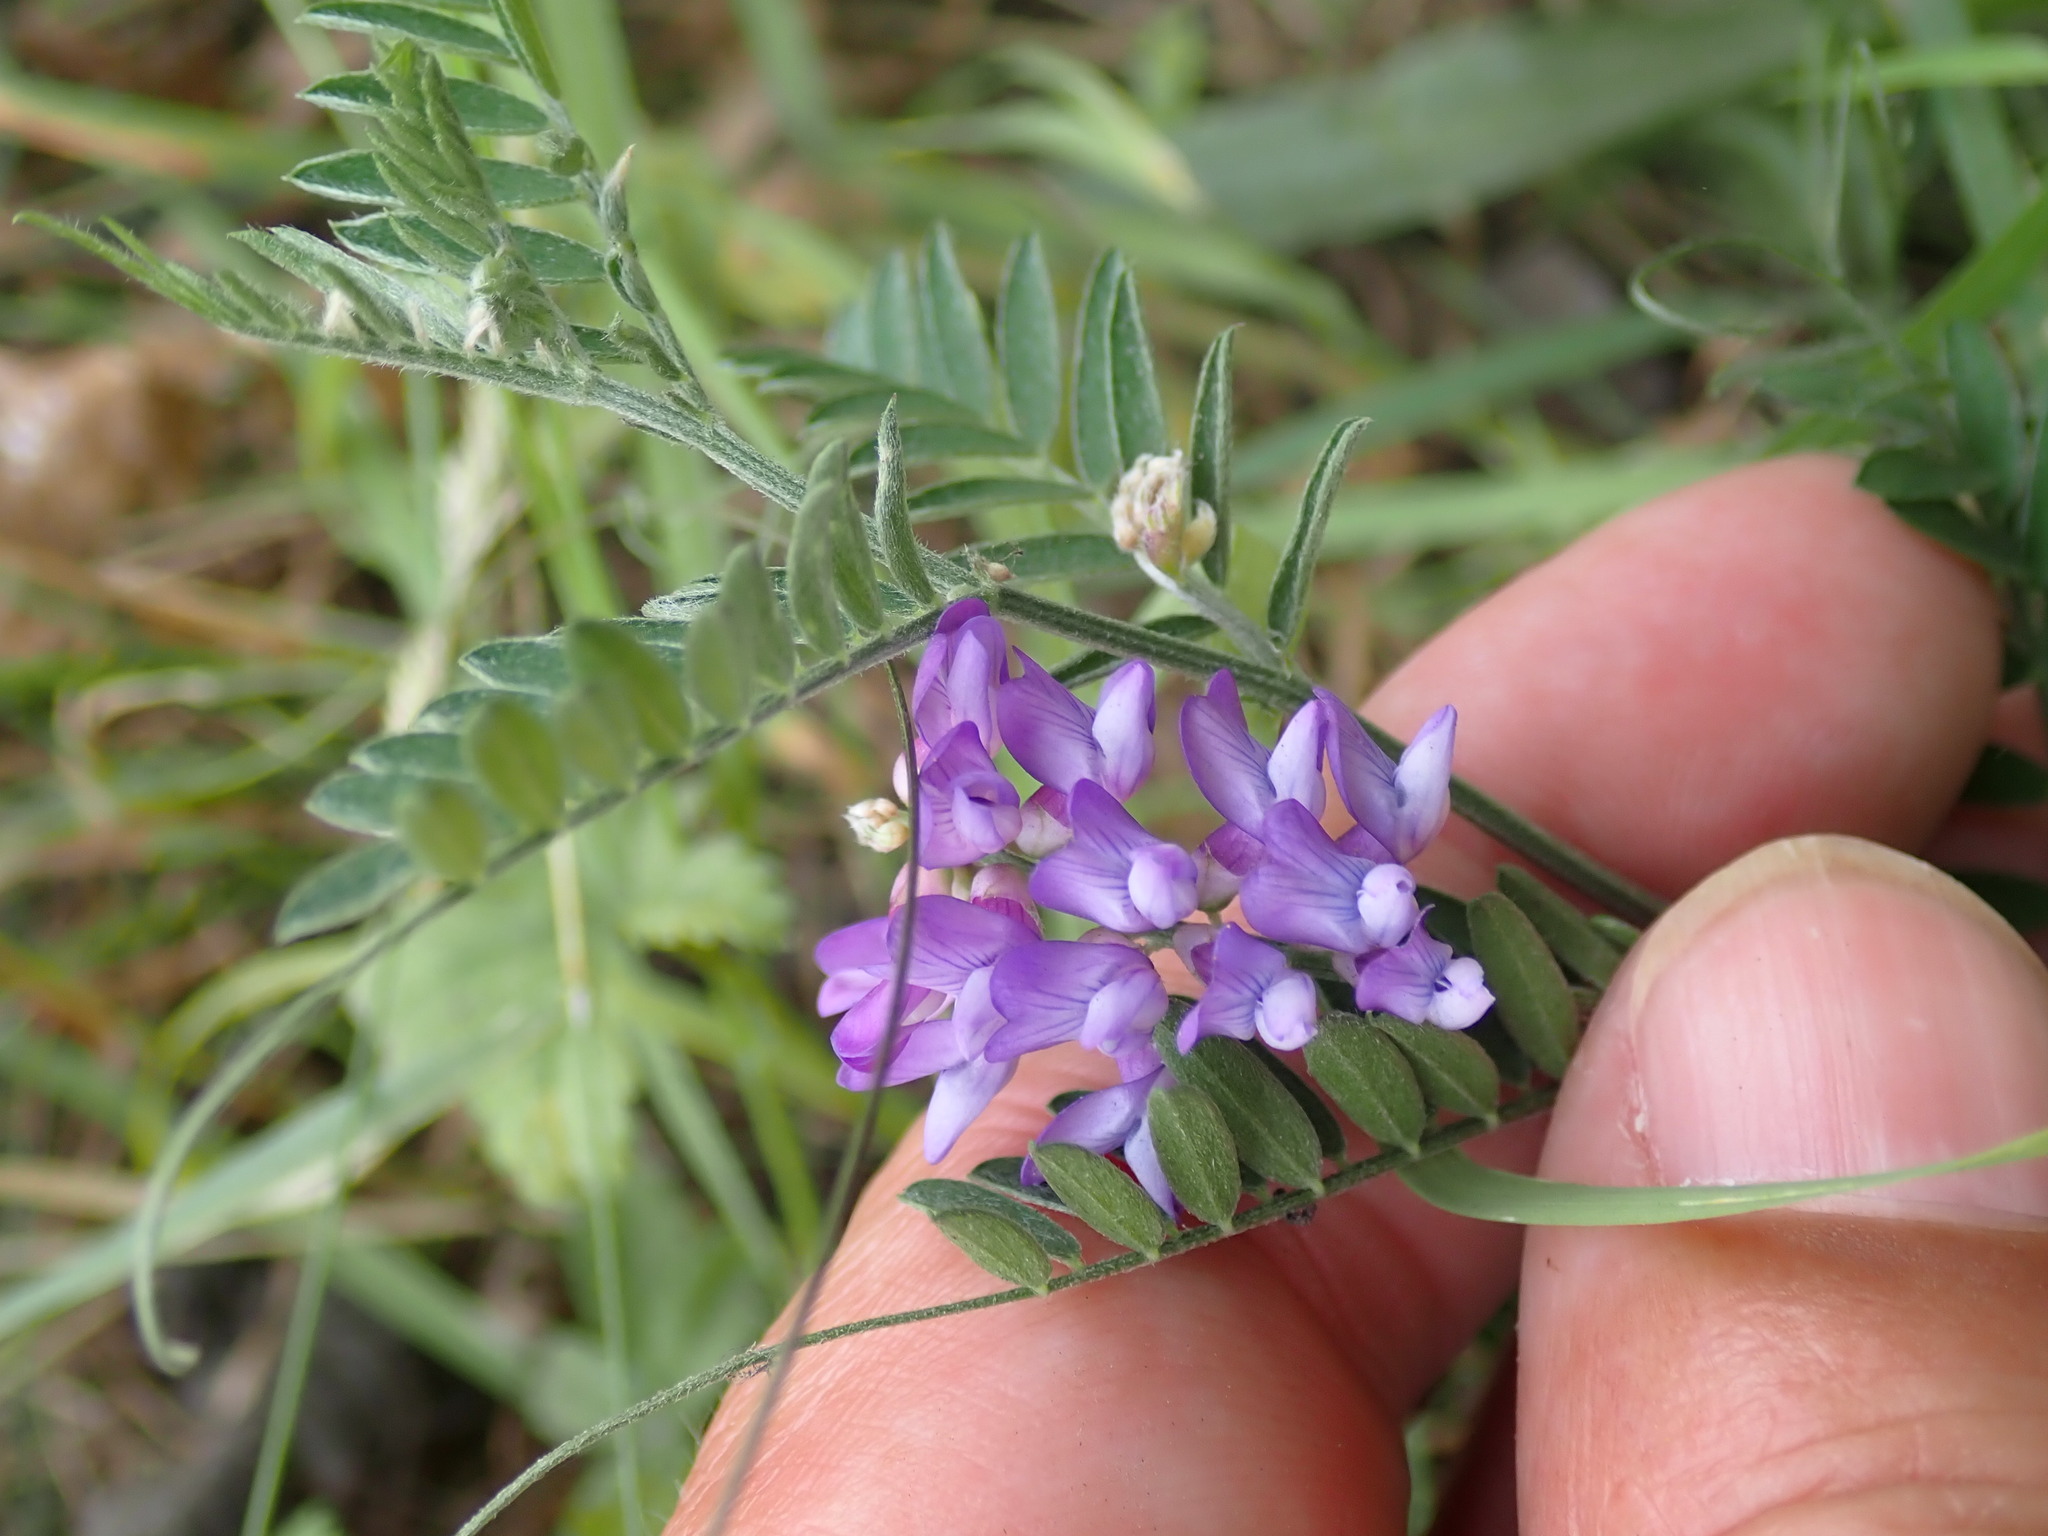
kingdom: Plantae
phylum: Tracheophyta
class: Magnoliopsida
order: Fabales
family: Fabaceae
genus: Vicia
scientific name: Vicia cracca
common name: Bird vetch
